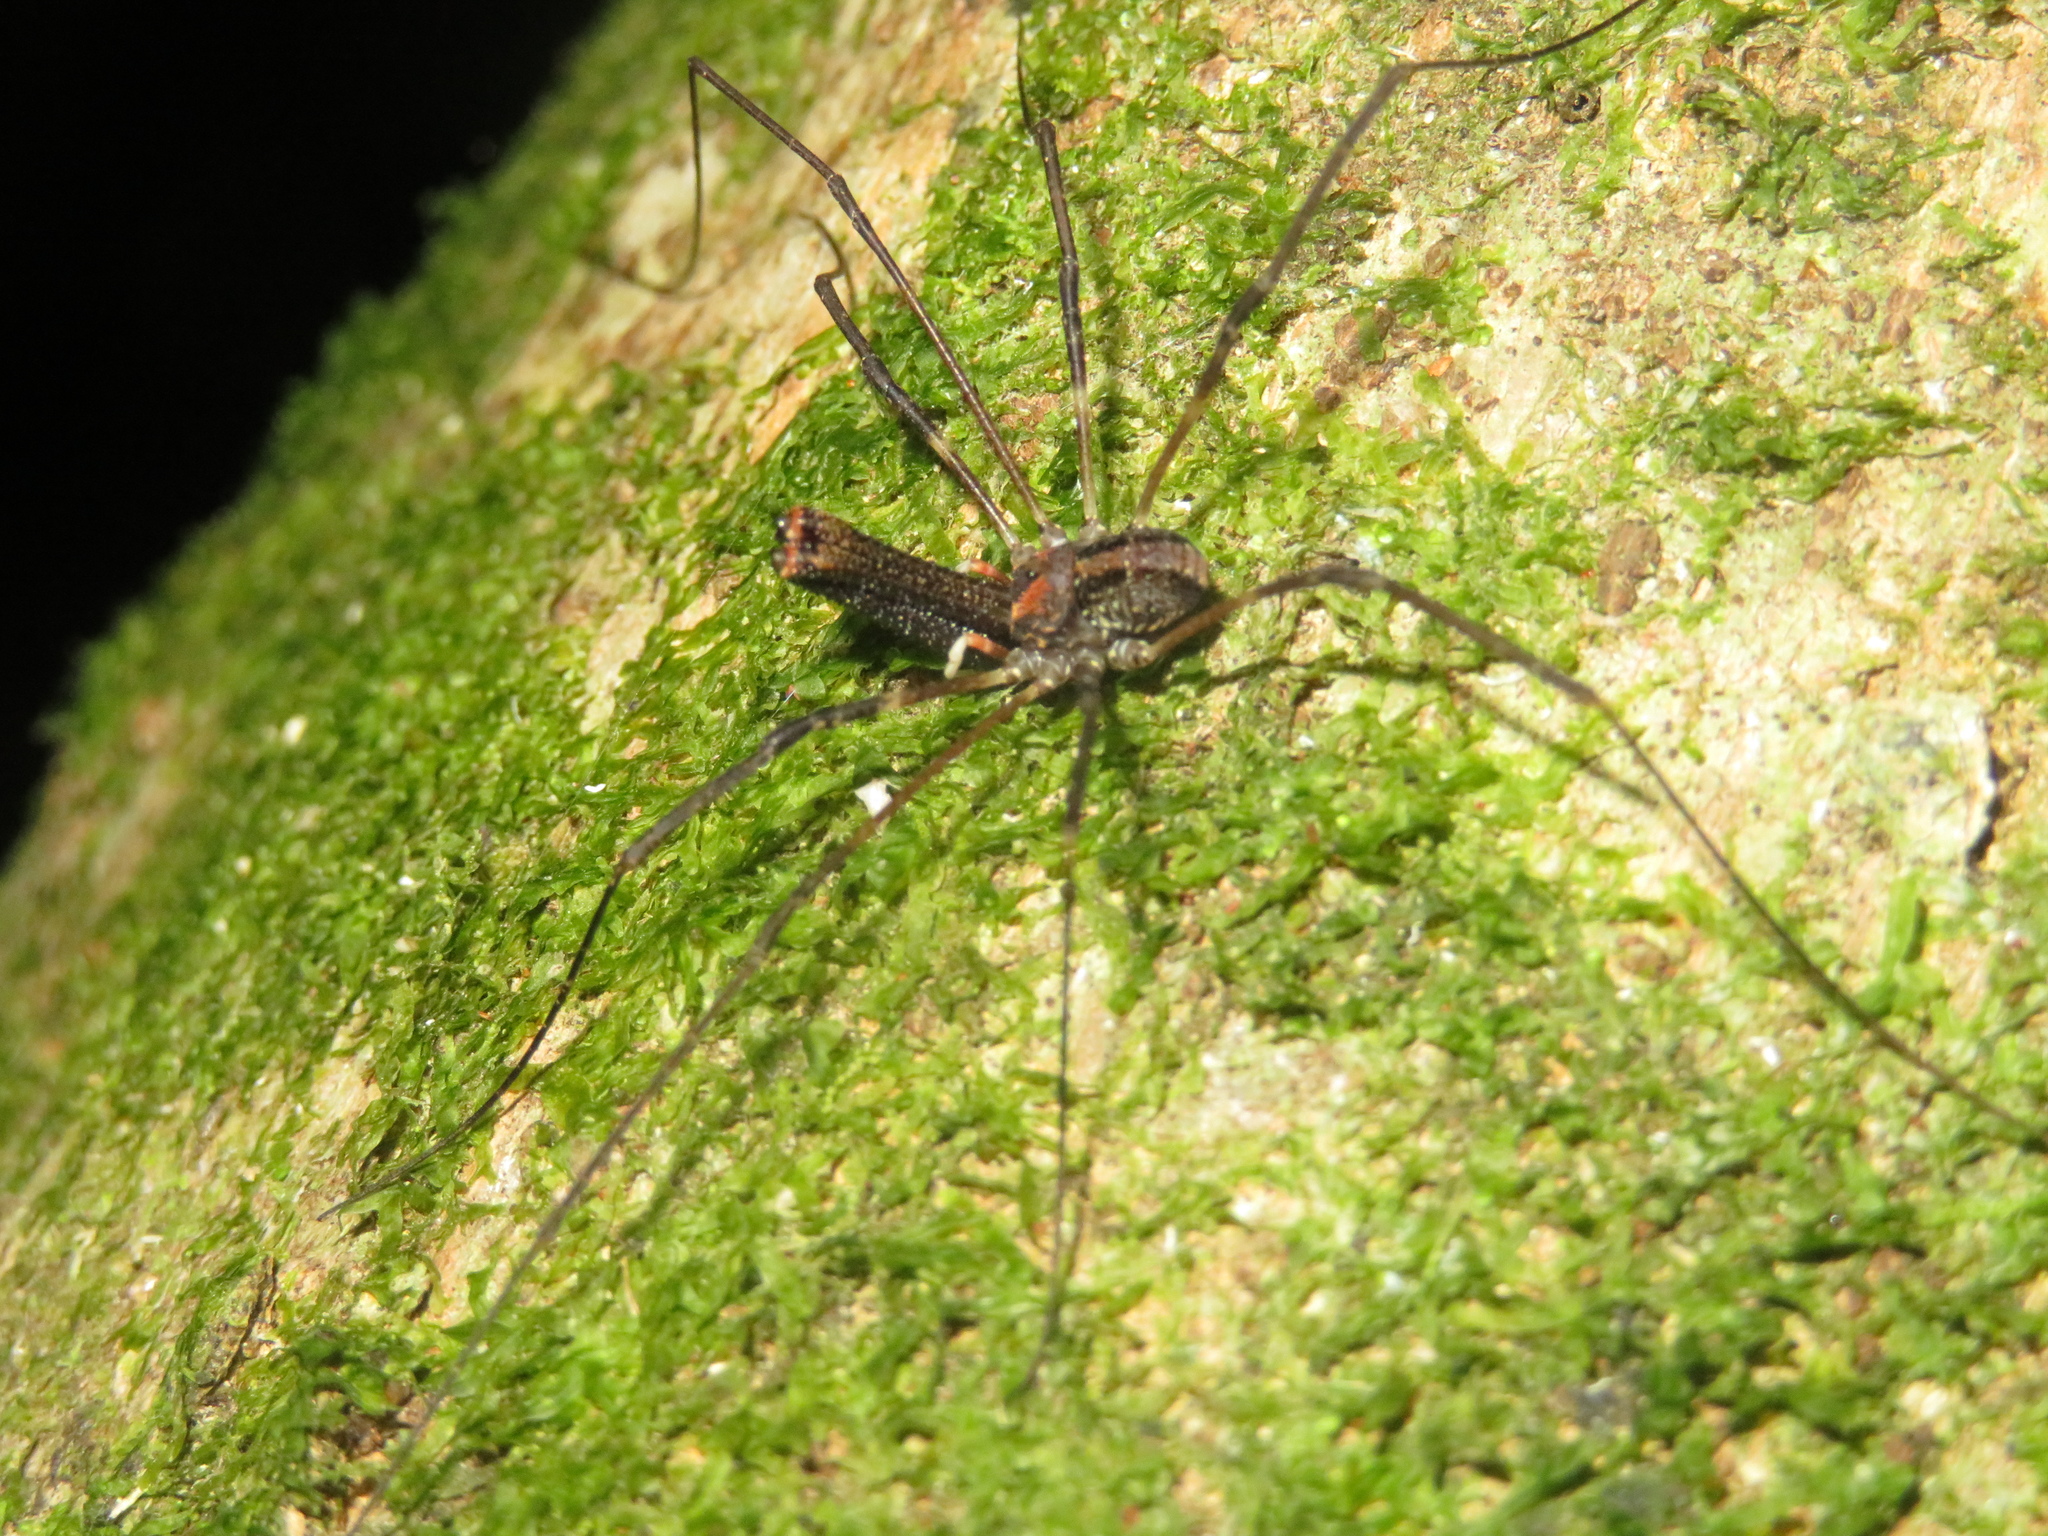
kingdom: Animalia
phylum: Arthropoda
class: Arachnida
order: Opiliones
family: Neopilionidae
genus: Forsteropsalis
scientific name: Forsteropsalis inconstans
